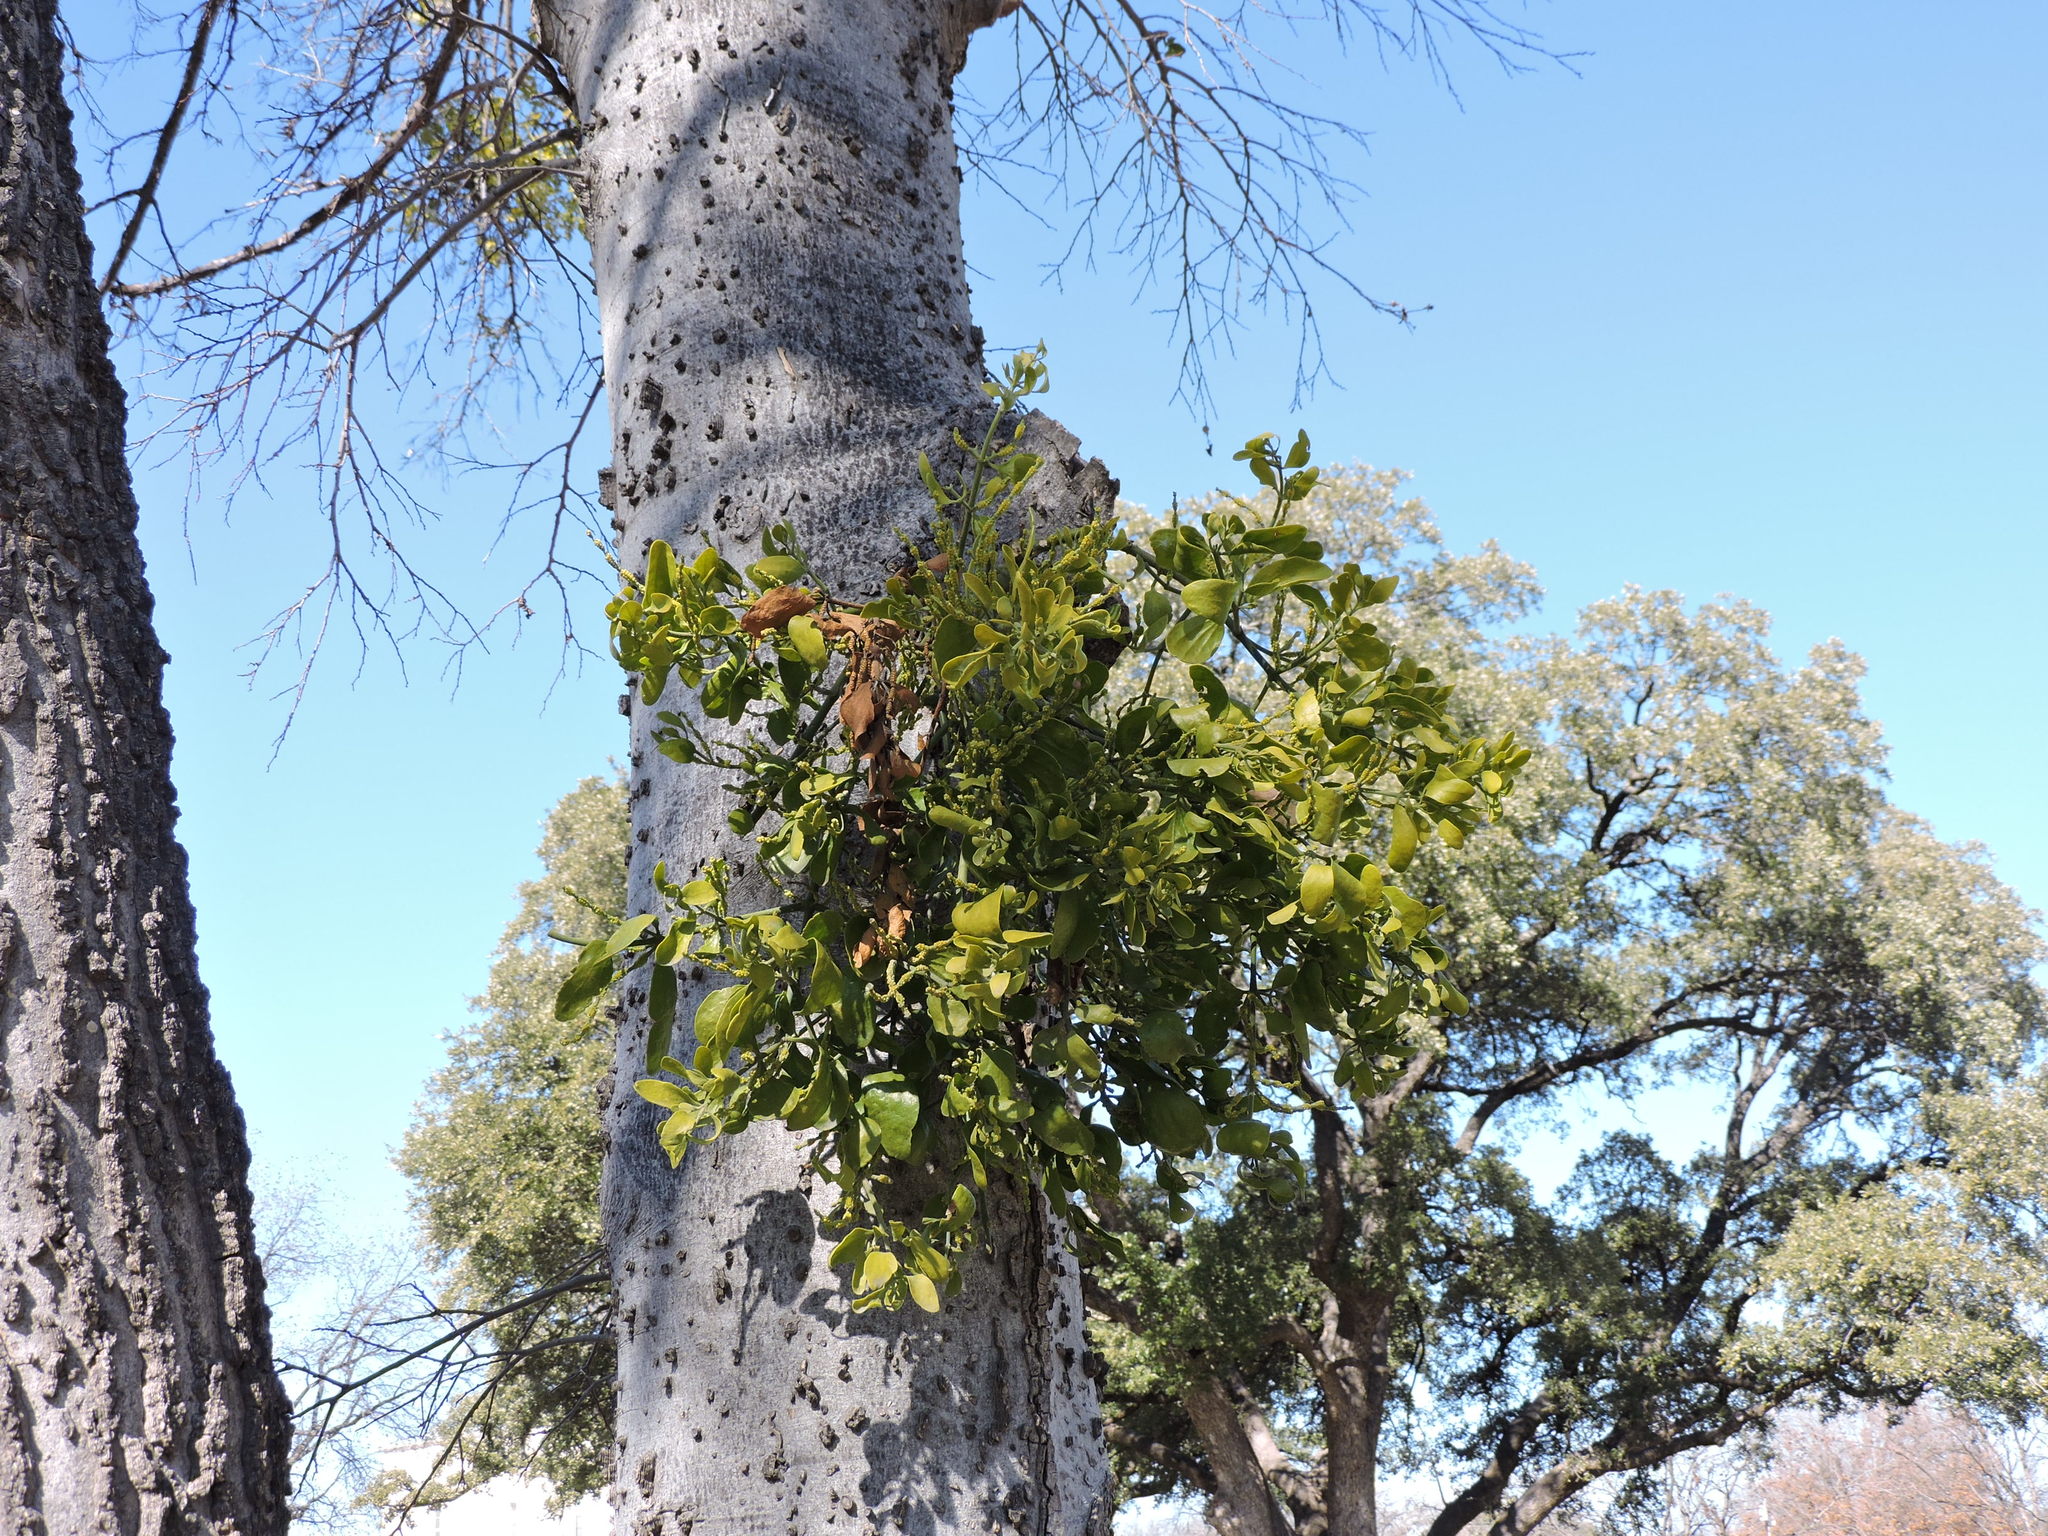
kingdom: Plantae
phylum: Tracheophyta
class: Magnoliopsida
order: Santalales
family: Viscaceae
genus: Phoradendron
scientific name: Phoradendron leucarpum
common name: Pacific mistletoe
